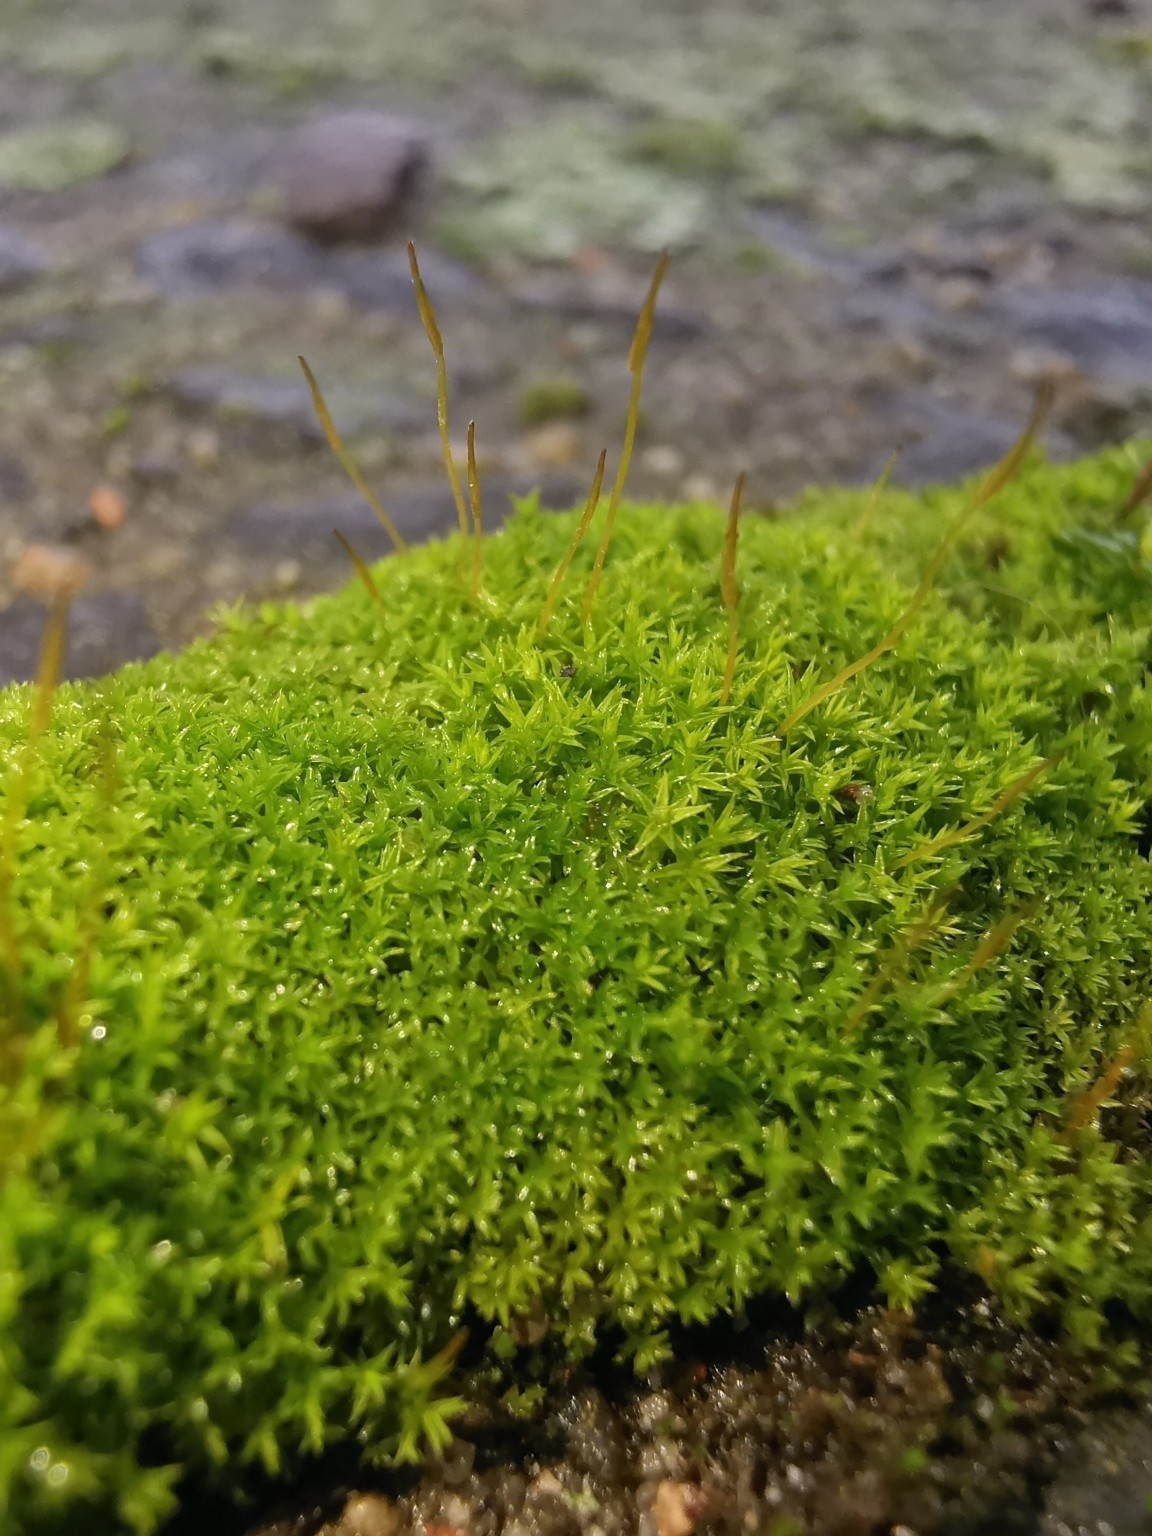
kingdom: Plantae
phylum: Bryophyta
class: Bryopsida
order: Pottiales
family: Pottiaceae
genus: Streblotrichum
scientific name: Streblotrichum convolutum
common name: Lesser bird's-claw beard-moss
